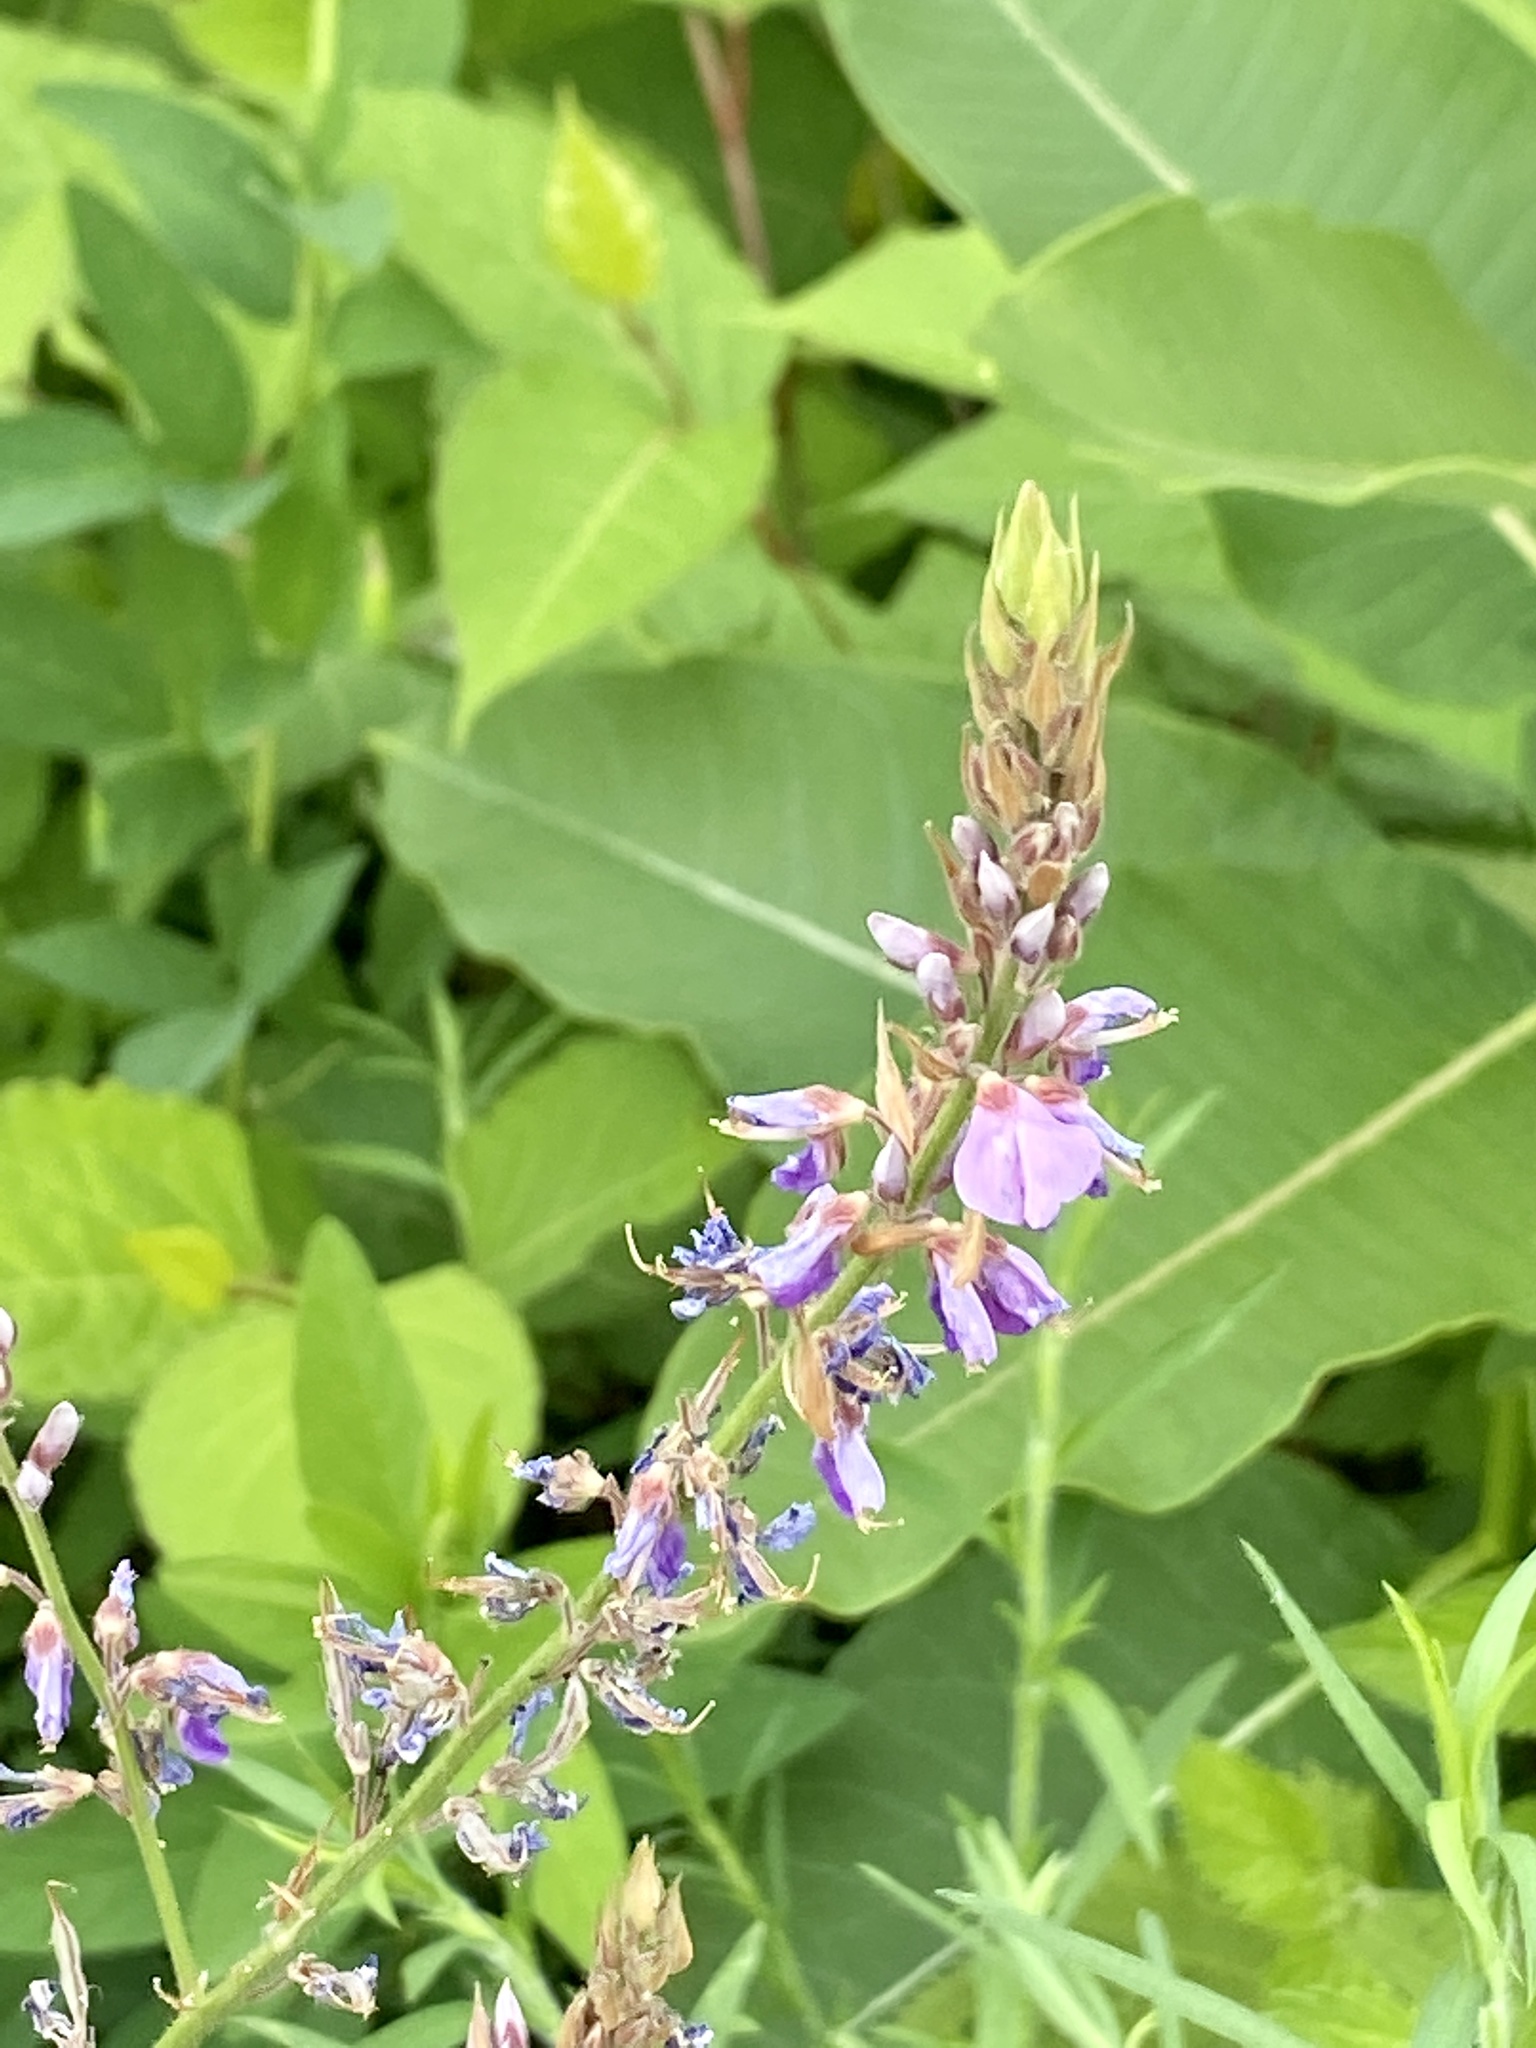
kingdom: Plantae
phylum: Tracheophyta
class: Magnoliopsida
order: Fabales
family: Fabaceae
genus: Desmodium
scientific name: Desmodium canadense
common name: Canada tick-trefoil
